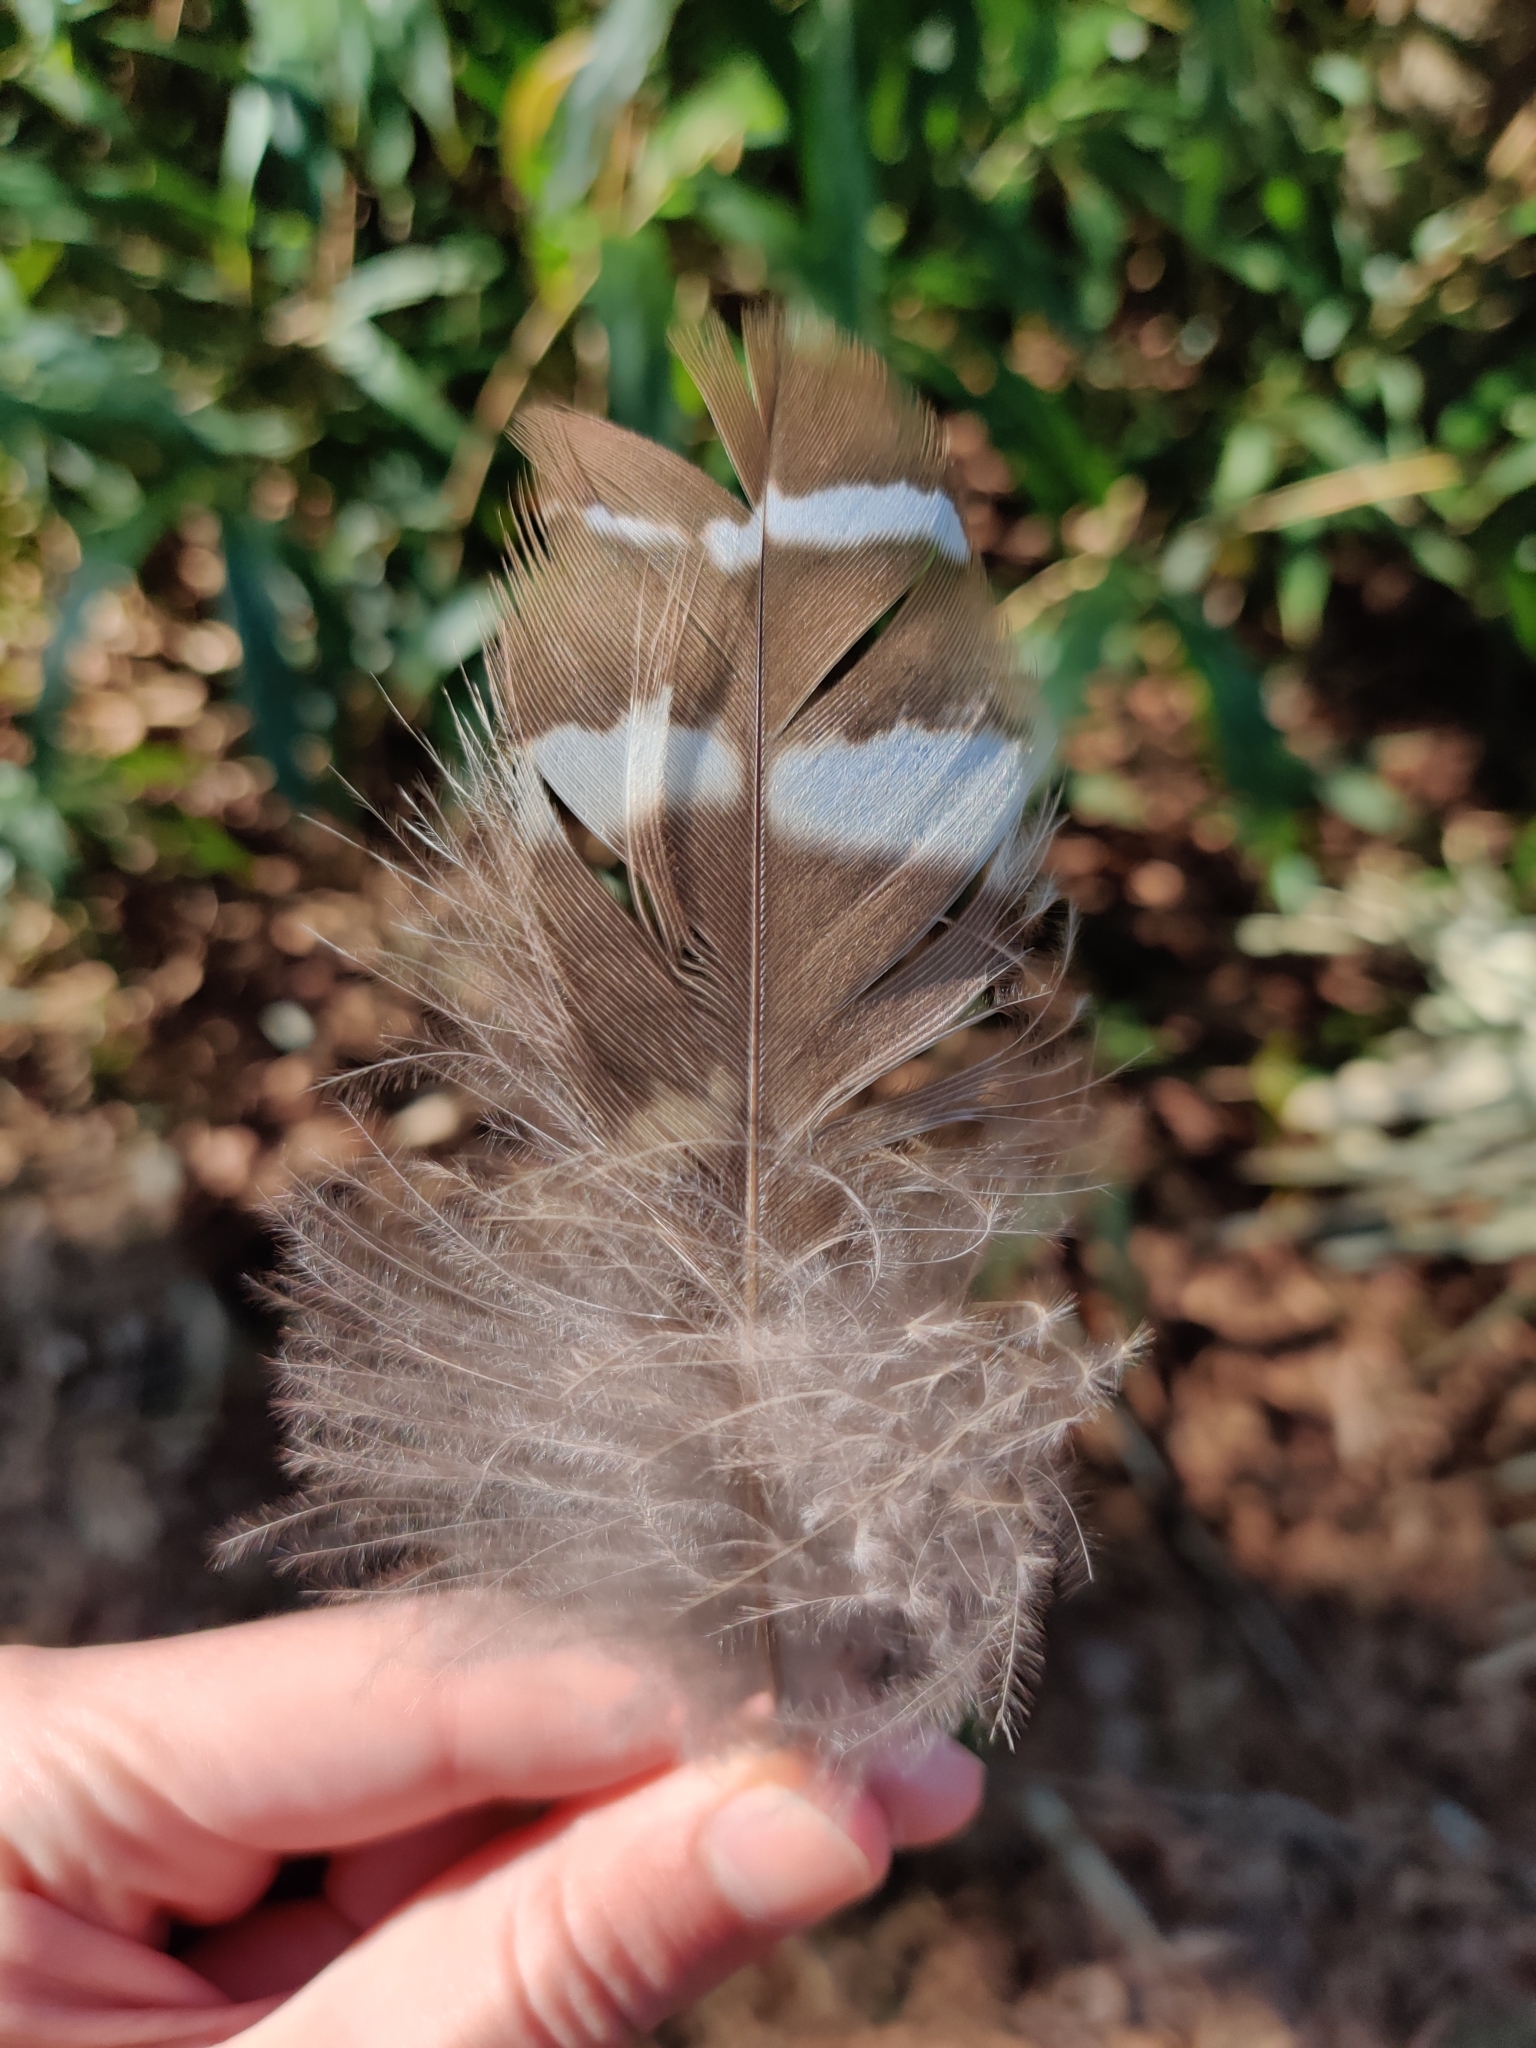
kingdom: Animalia
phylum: Chordata
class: Aves
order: Strigiformes
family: Strigidae
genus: Strix
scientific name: Strix varia
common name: Barred owl
